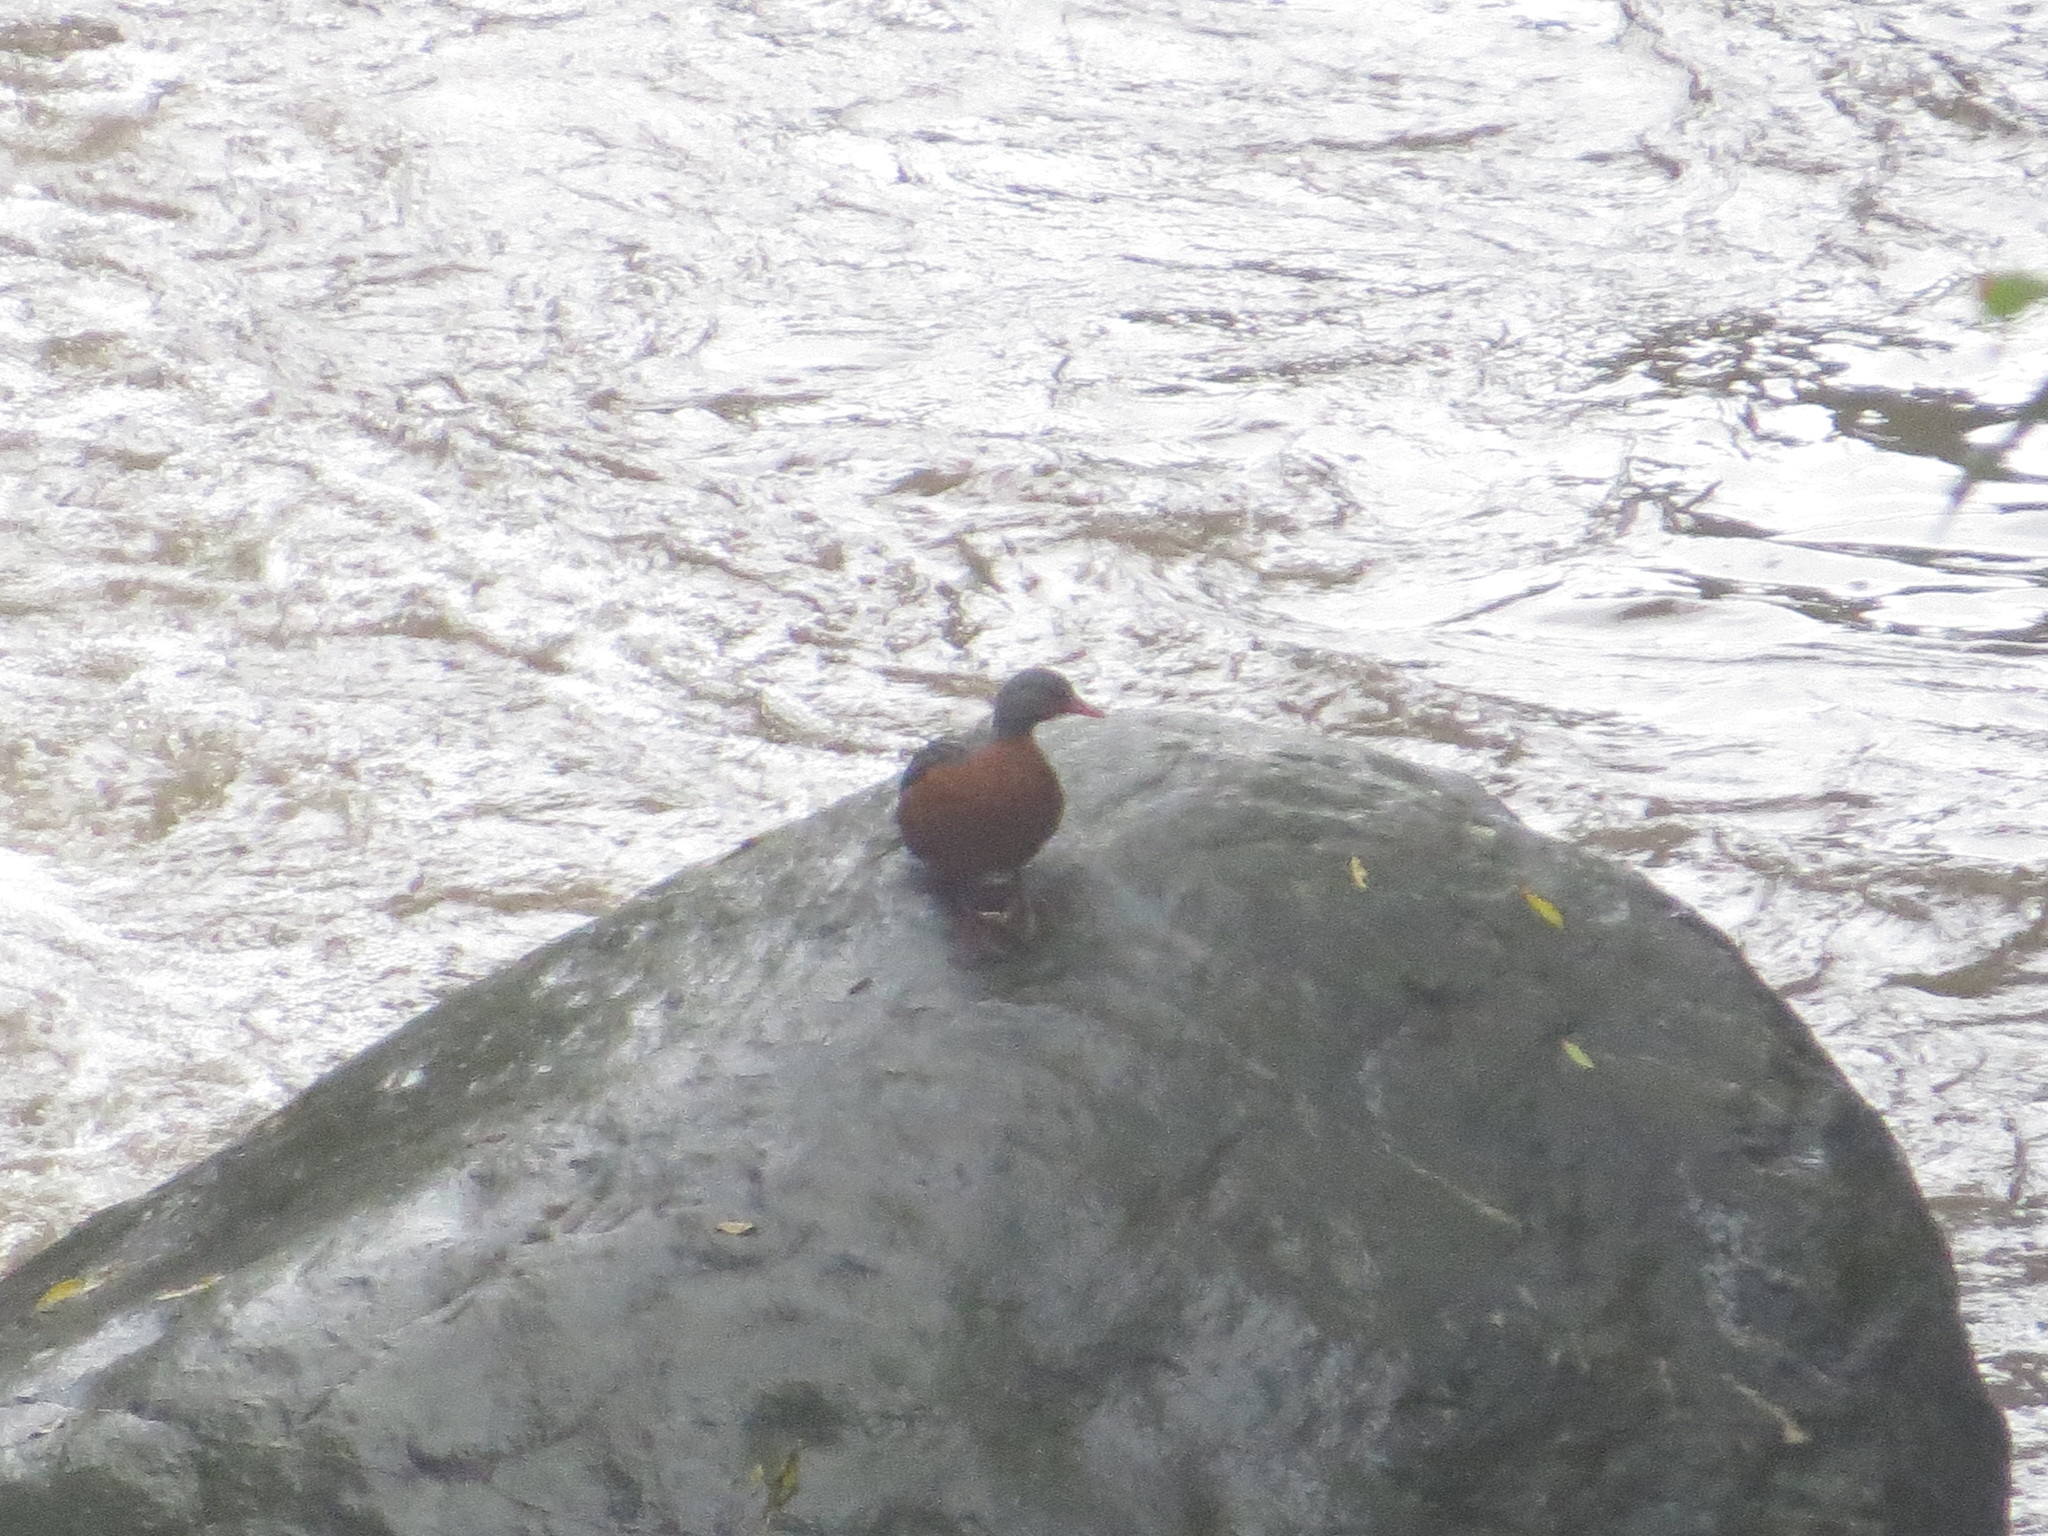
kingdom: Animalia
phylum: Chordata
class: Aves
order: Anseriformes
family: Anatidae
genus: Merganetta
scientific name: Merganetta armata
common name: Torrent duck
